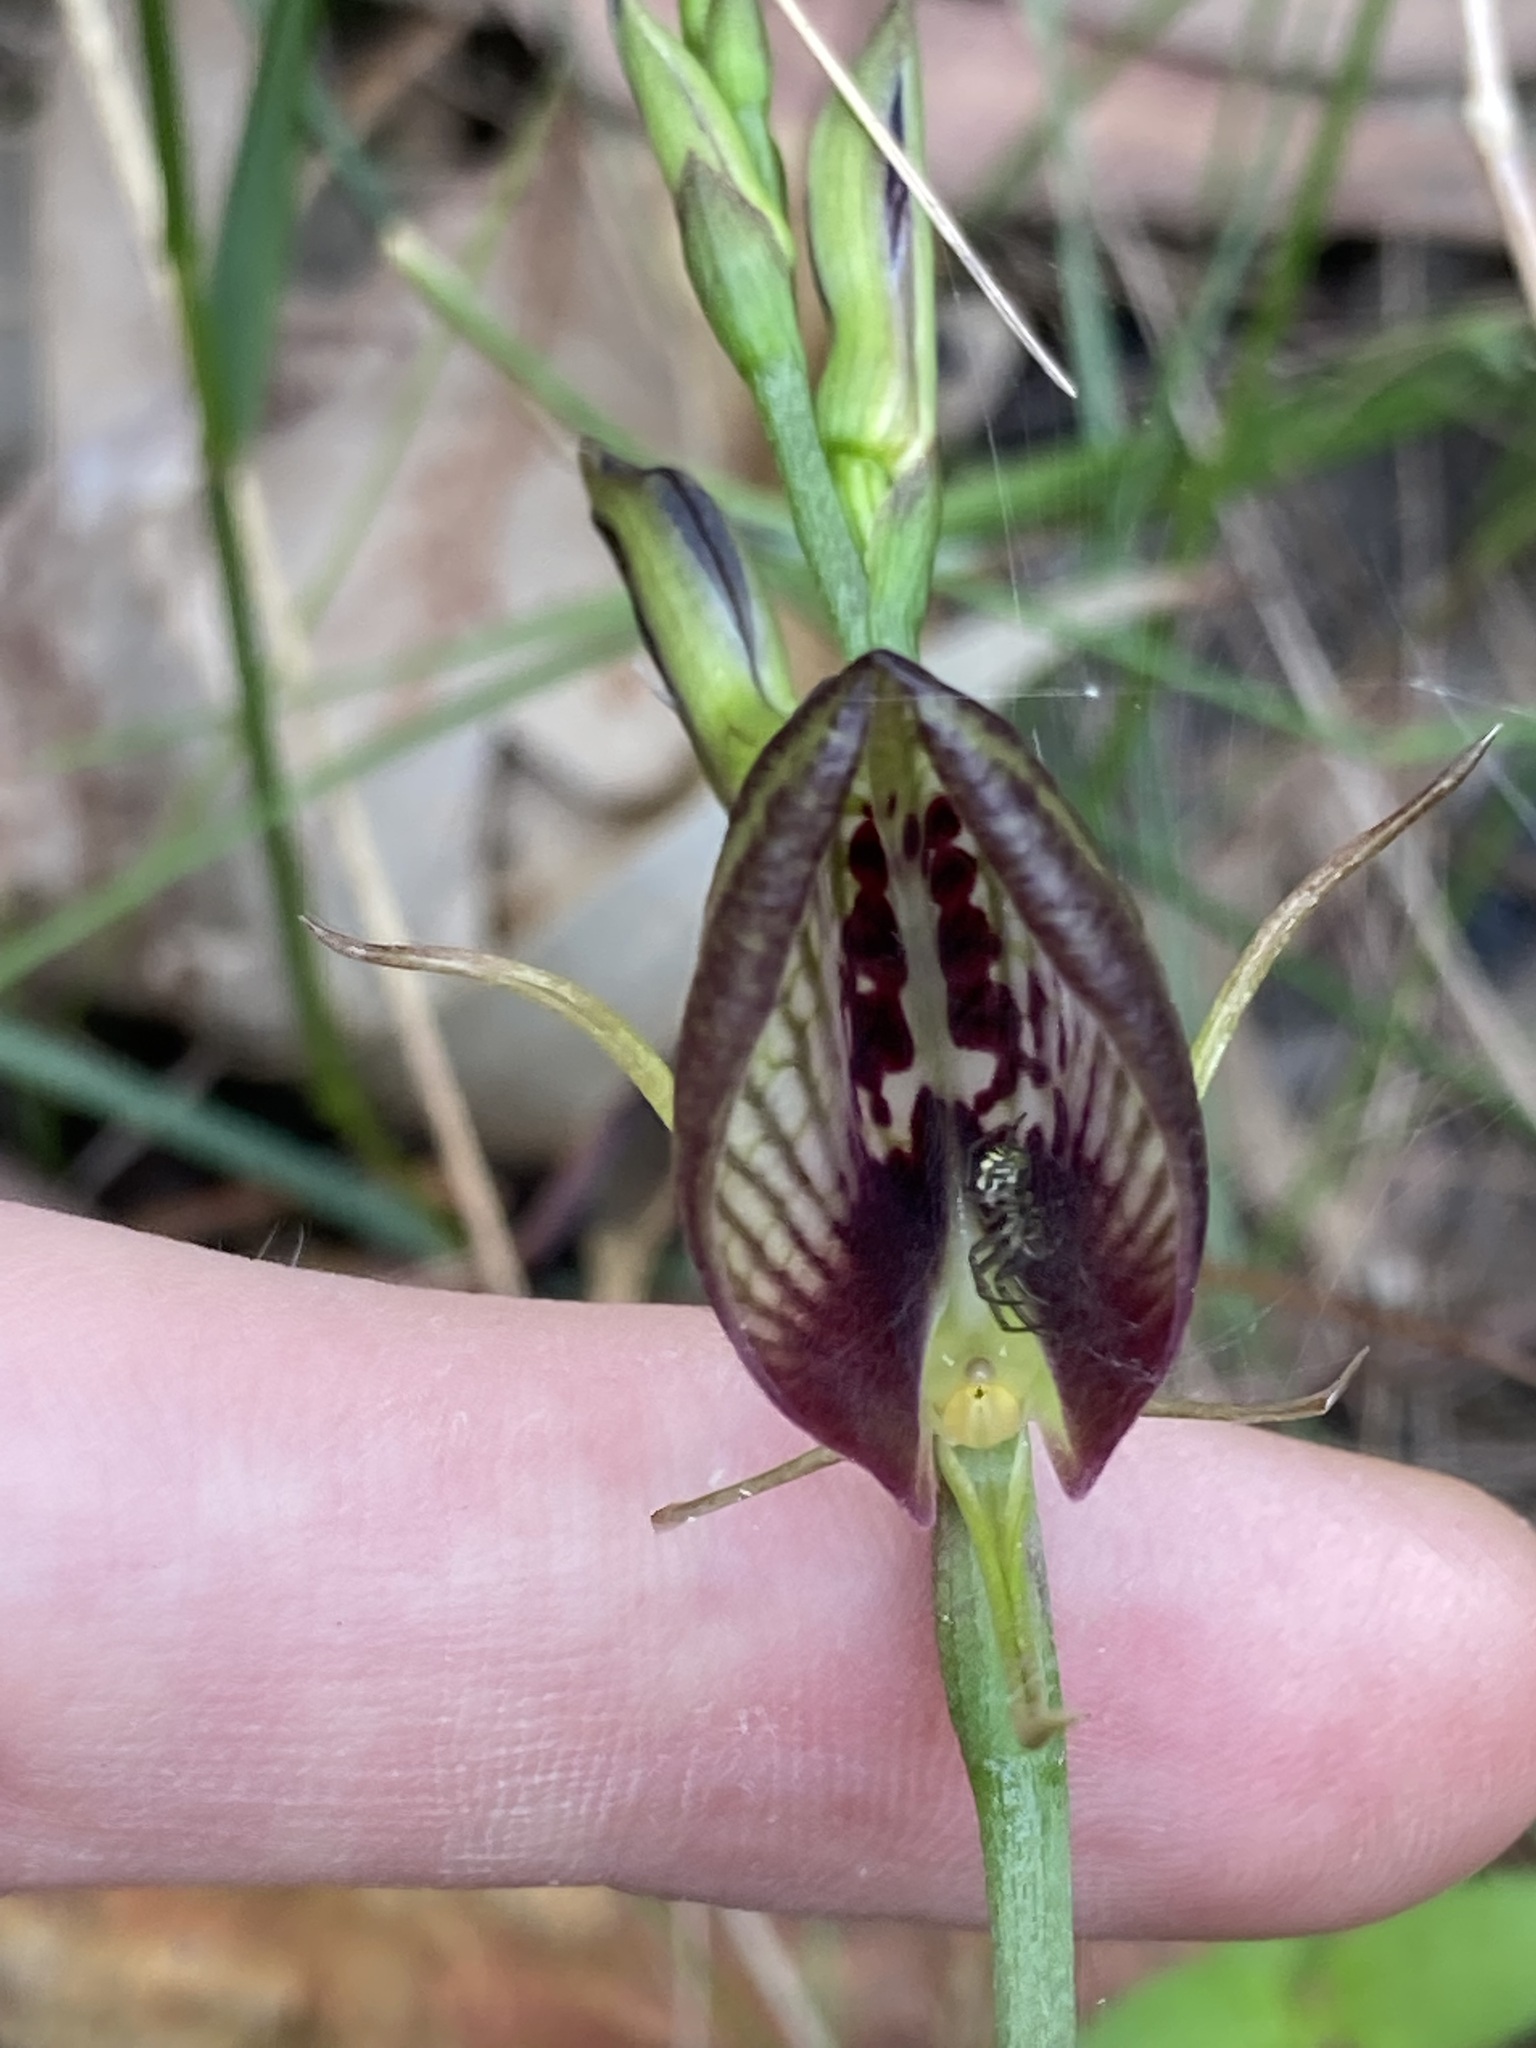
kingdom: Plantae
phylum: Tracheophyta
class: Liliopsida
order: Asparagales
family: Orchidaceae
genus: Cryptostylis
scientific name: Cryptostylis erecta
